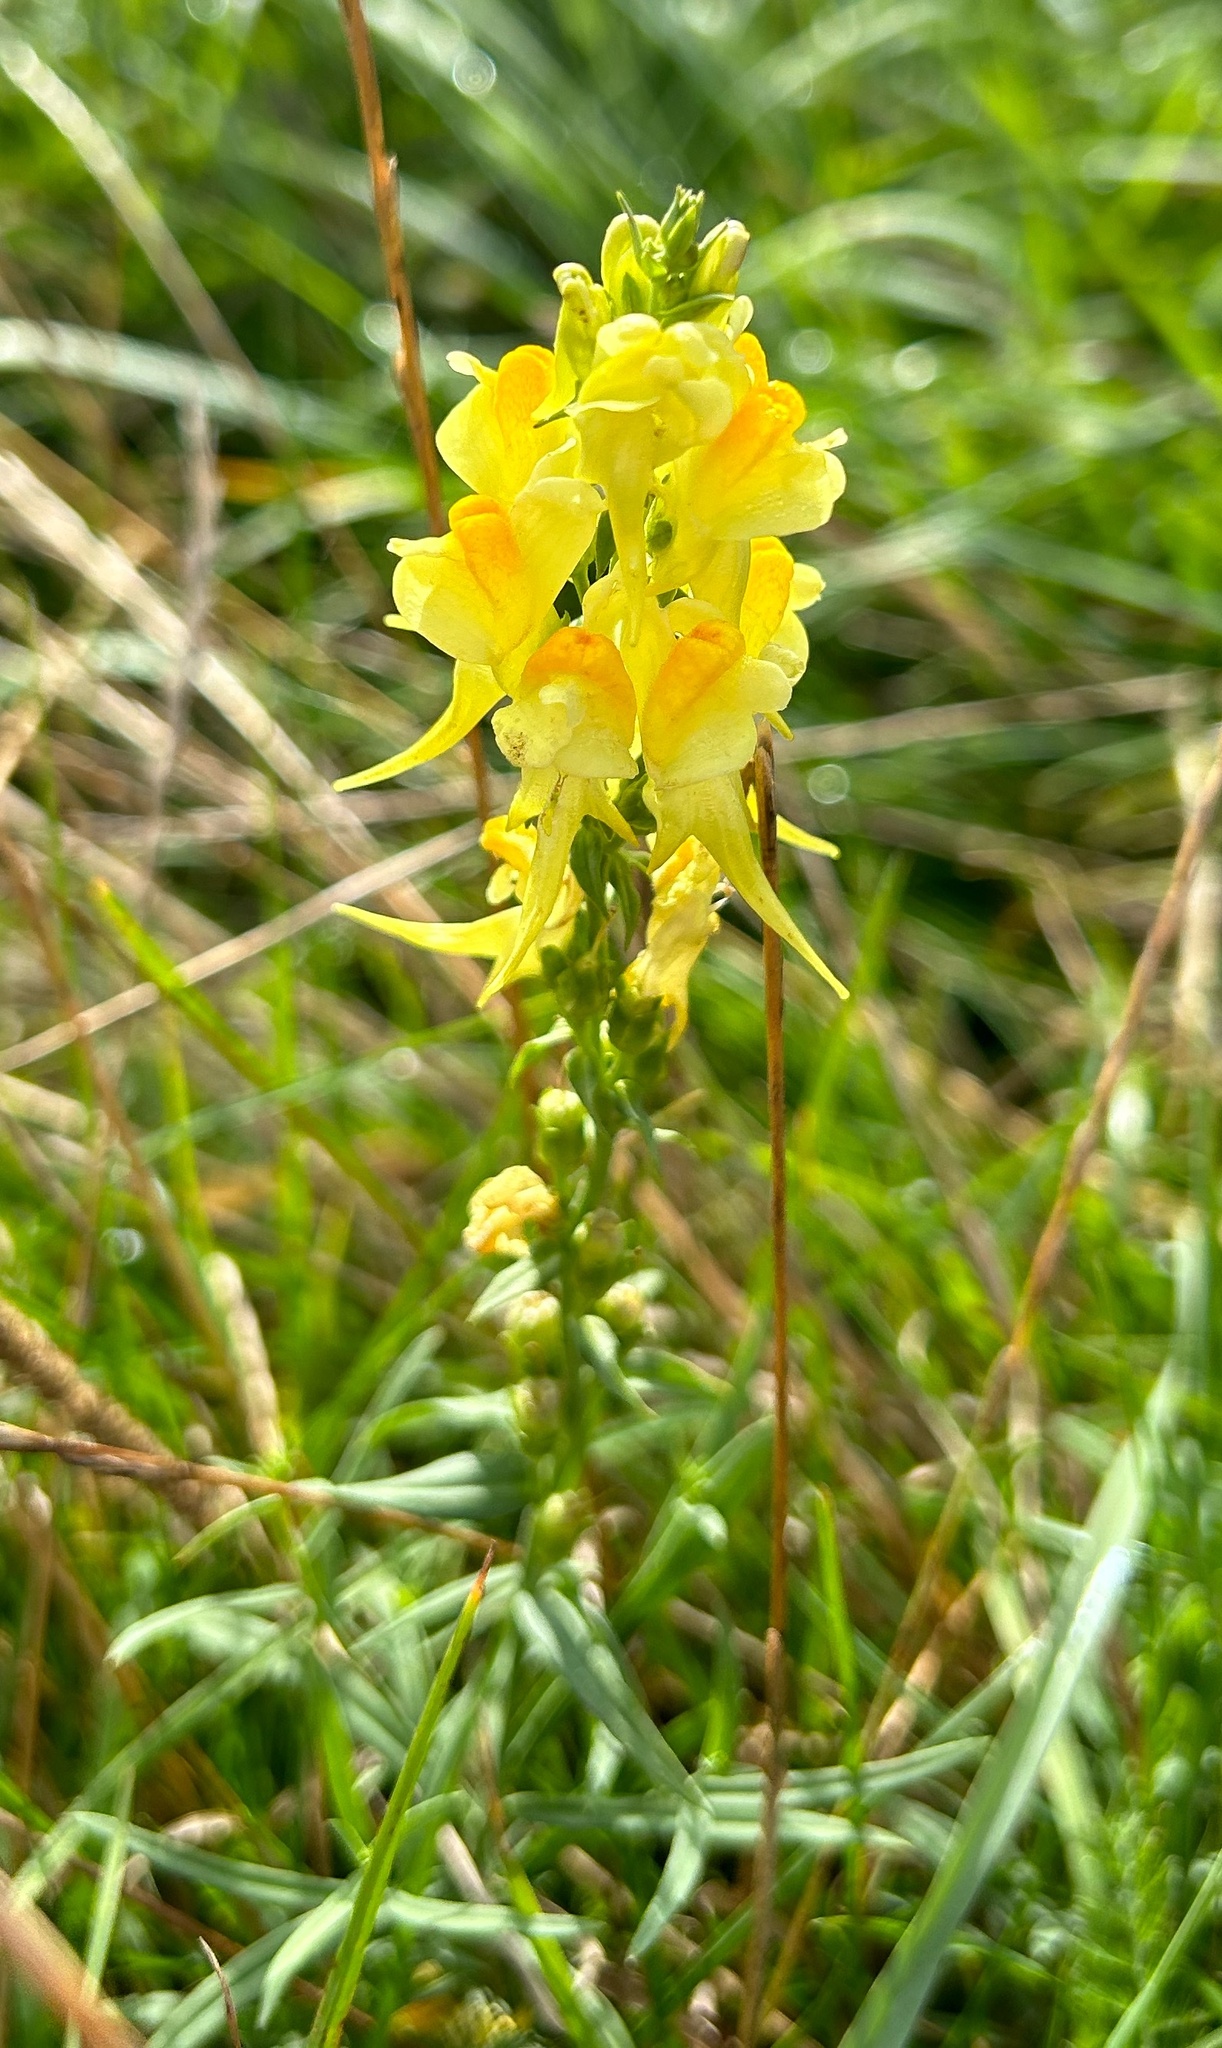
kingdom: Plantae
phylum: Tracheophyta
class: Magnoliopsida
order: Lamiales
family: Plantaginaceae
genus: Linaria
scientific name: Linaria vulgaris
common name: Butter and eggs
